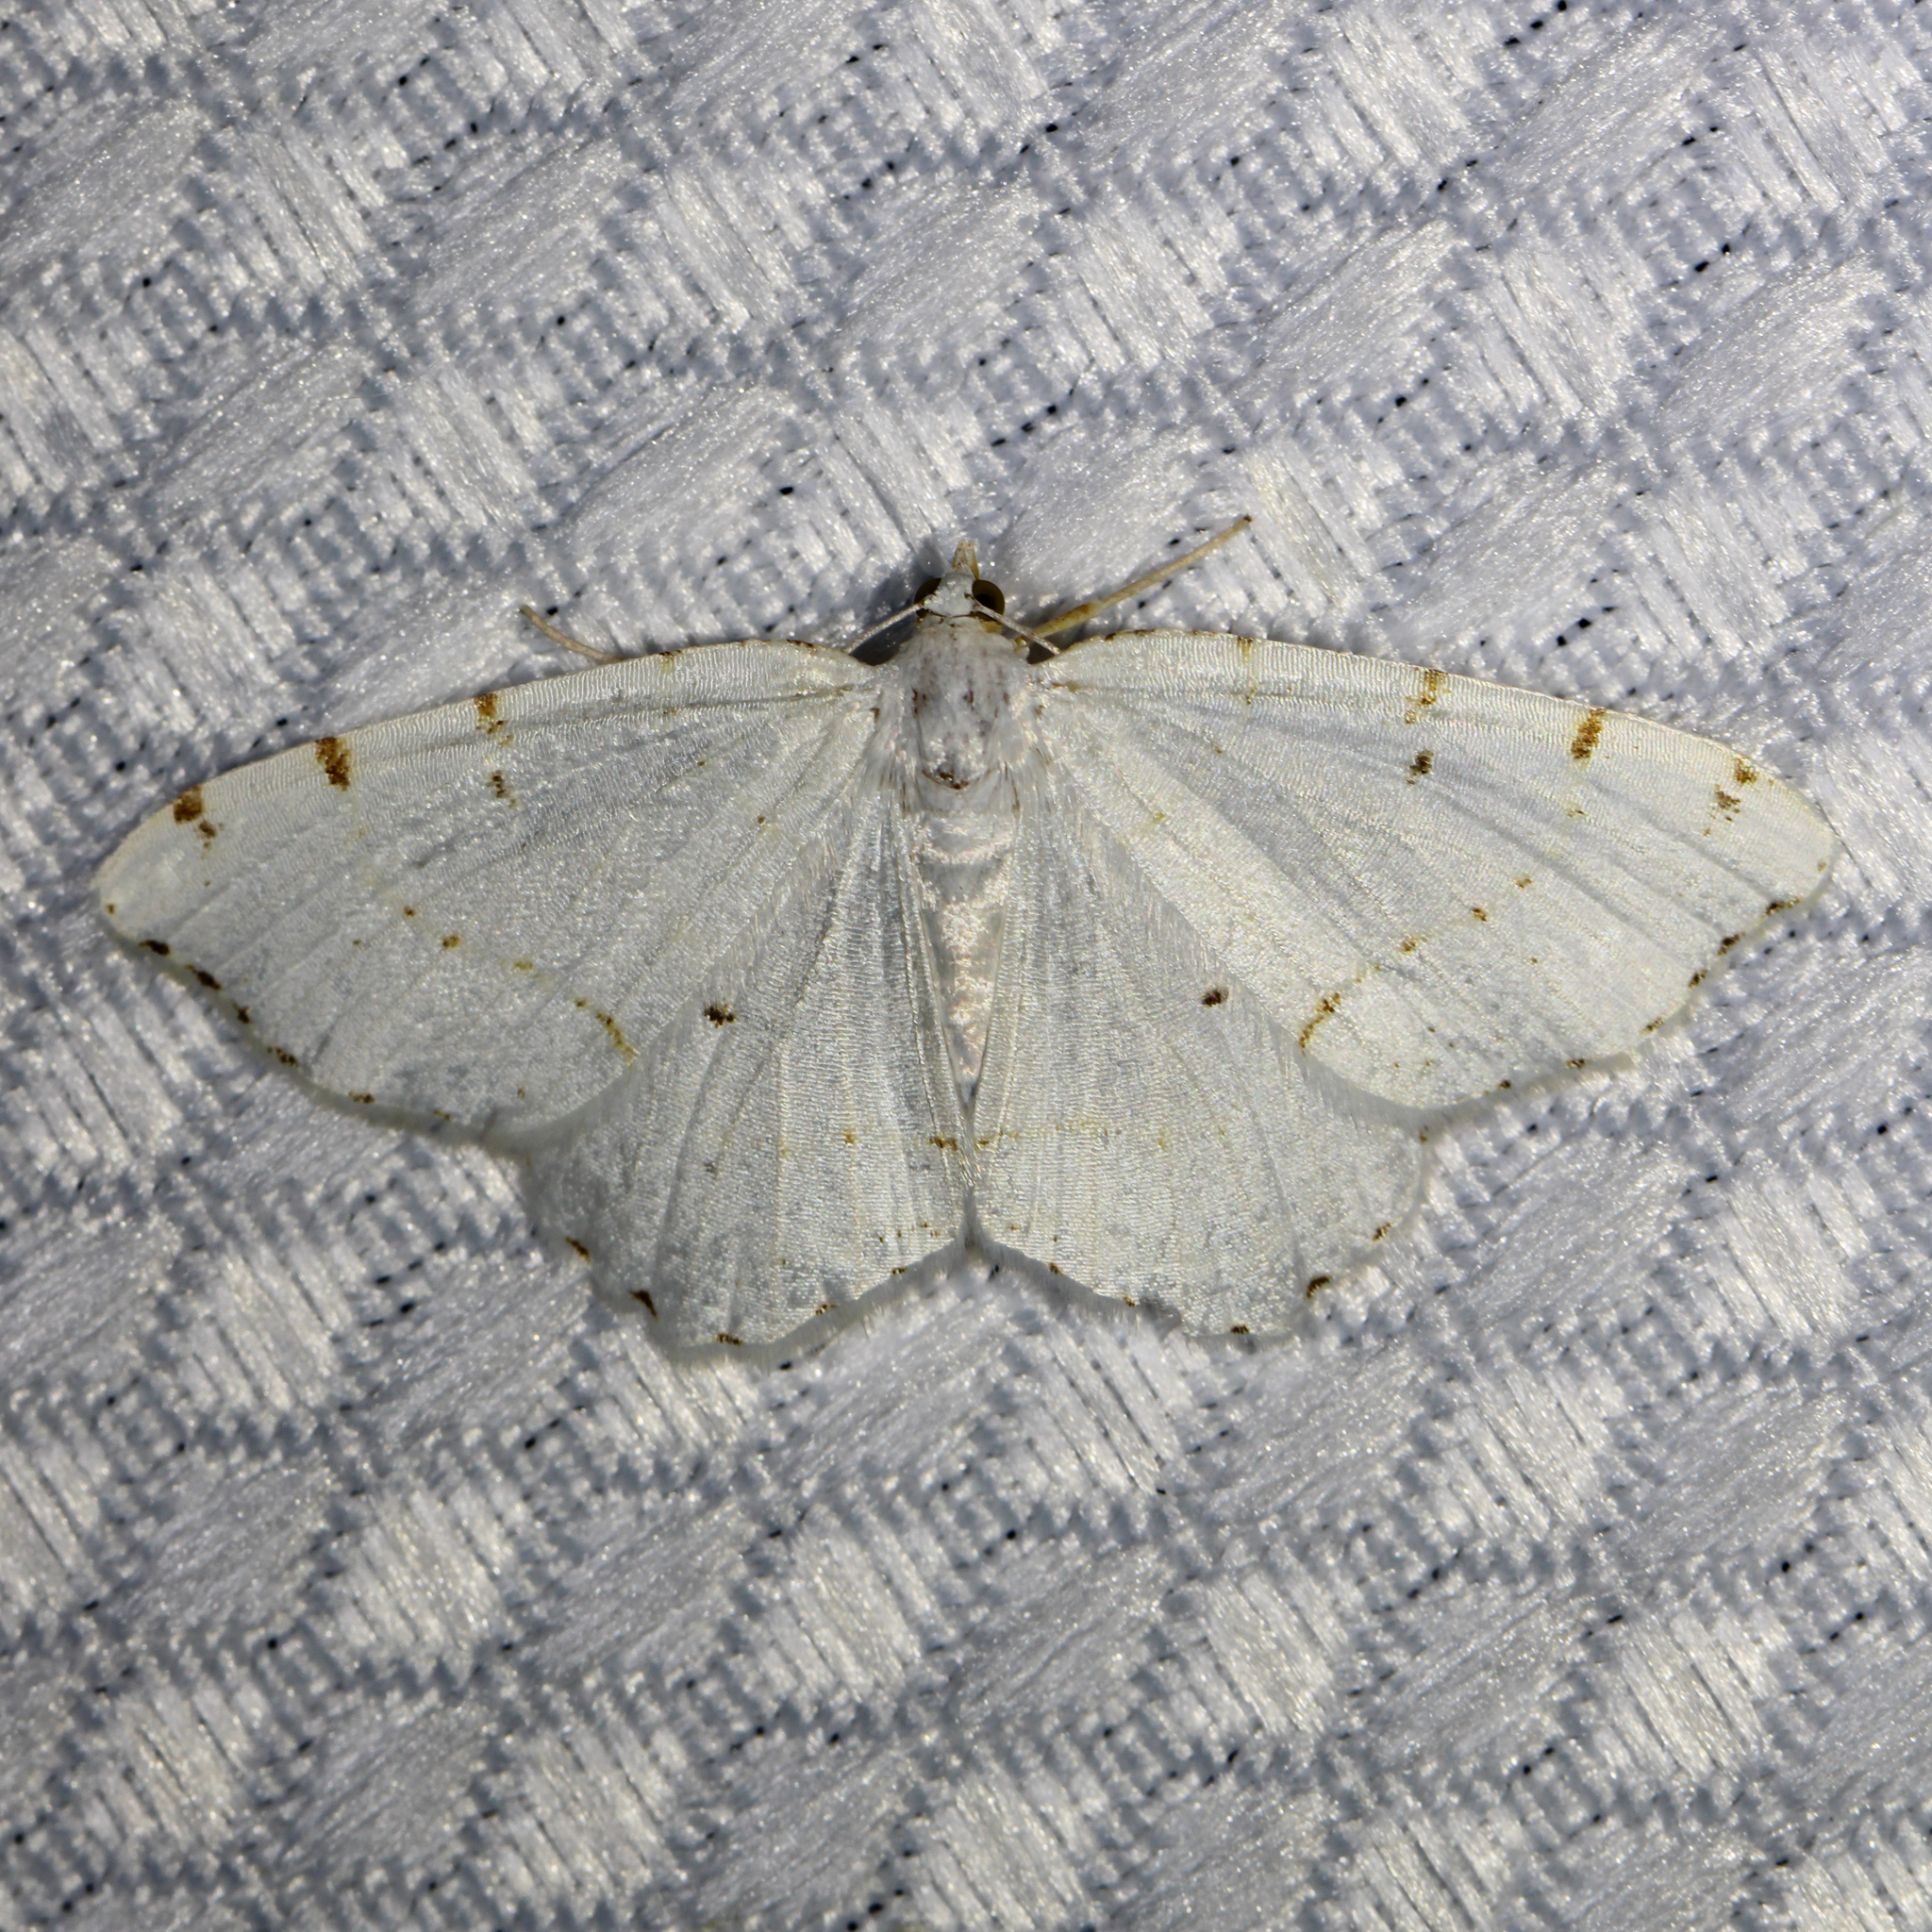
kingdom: Animalia
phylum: Arthropoda
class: Insecta
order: Lepidoptera
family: Geometridae
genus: Macaria
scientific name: Macaria pustularia
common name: Lesser maple spanworm moth
